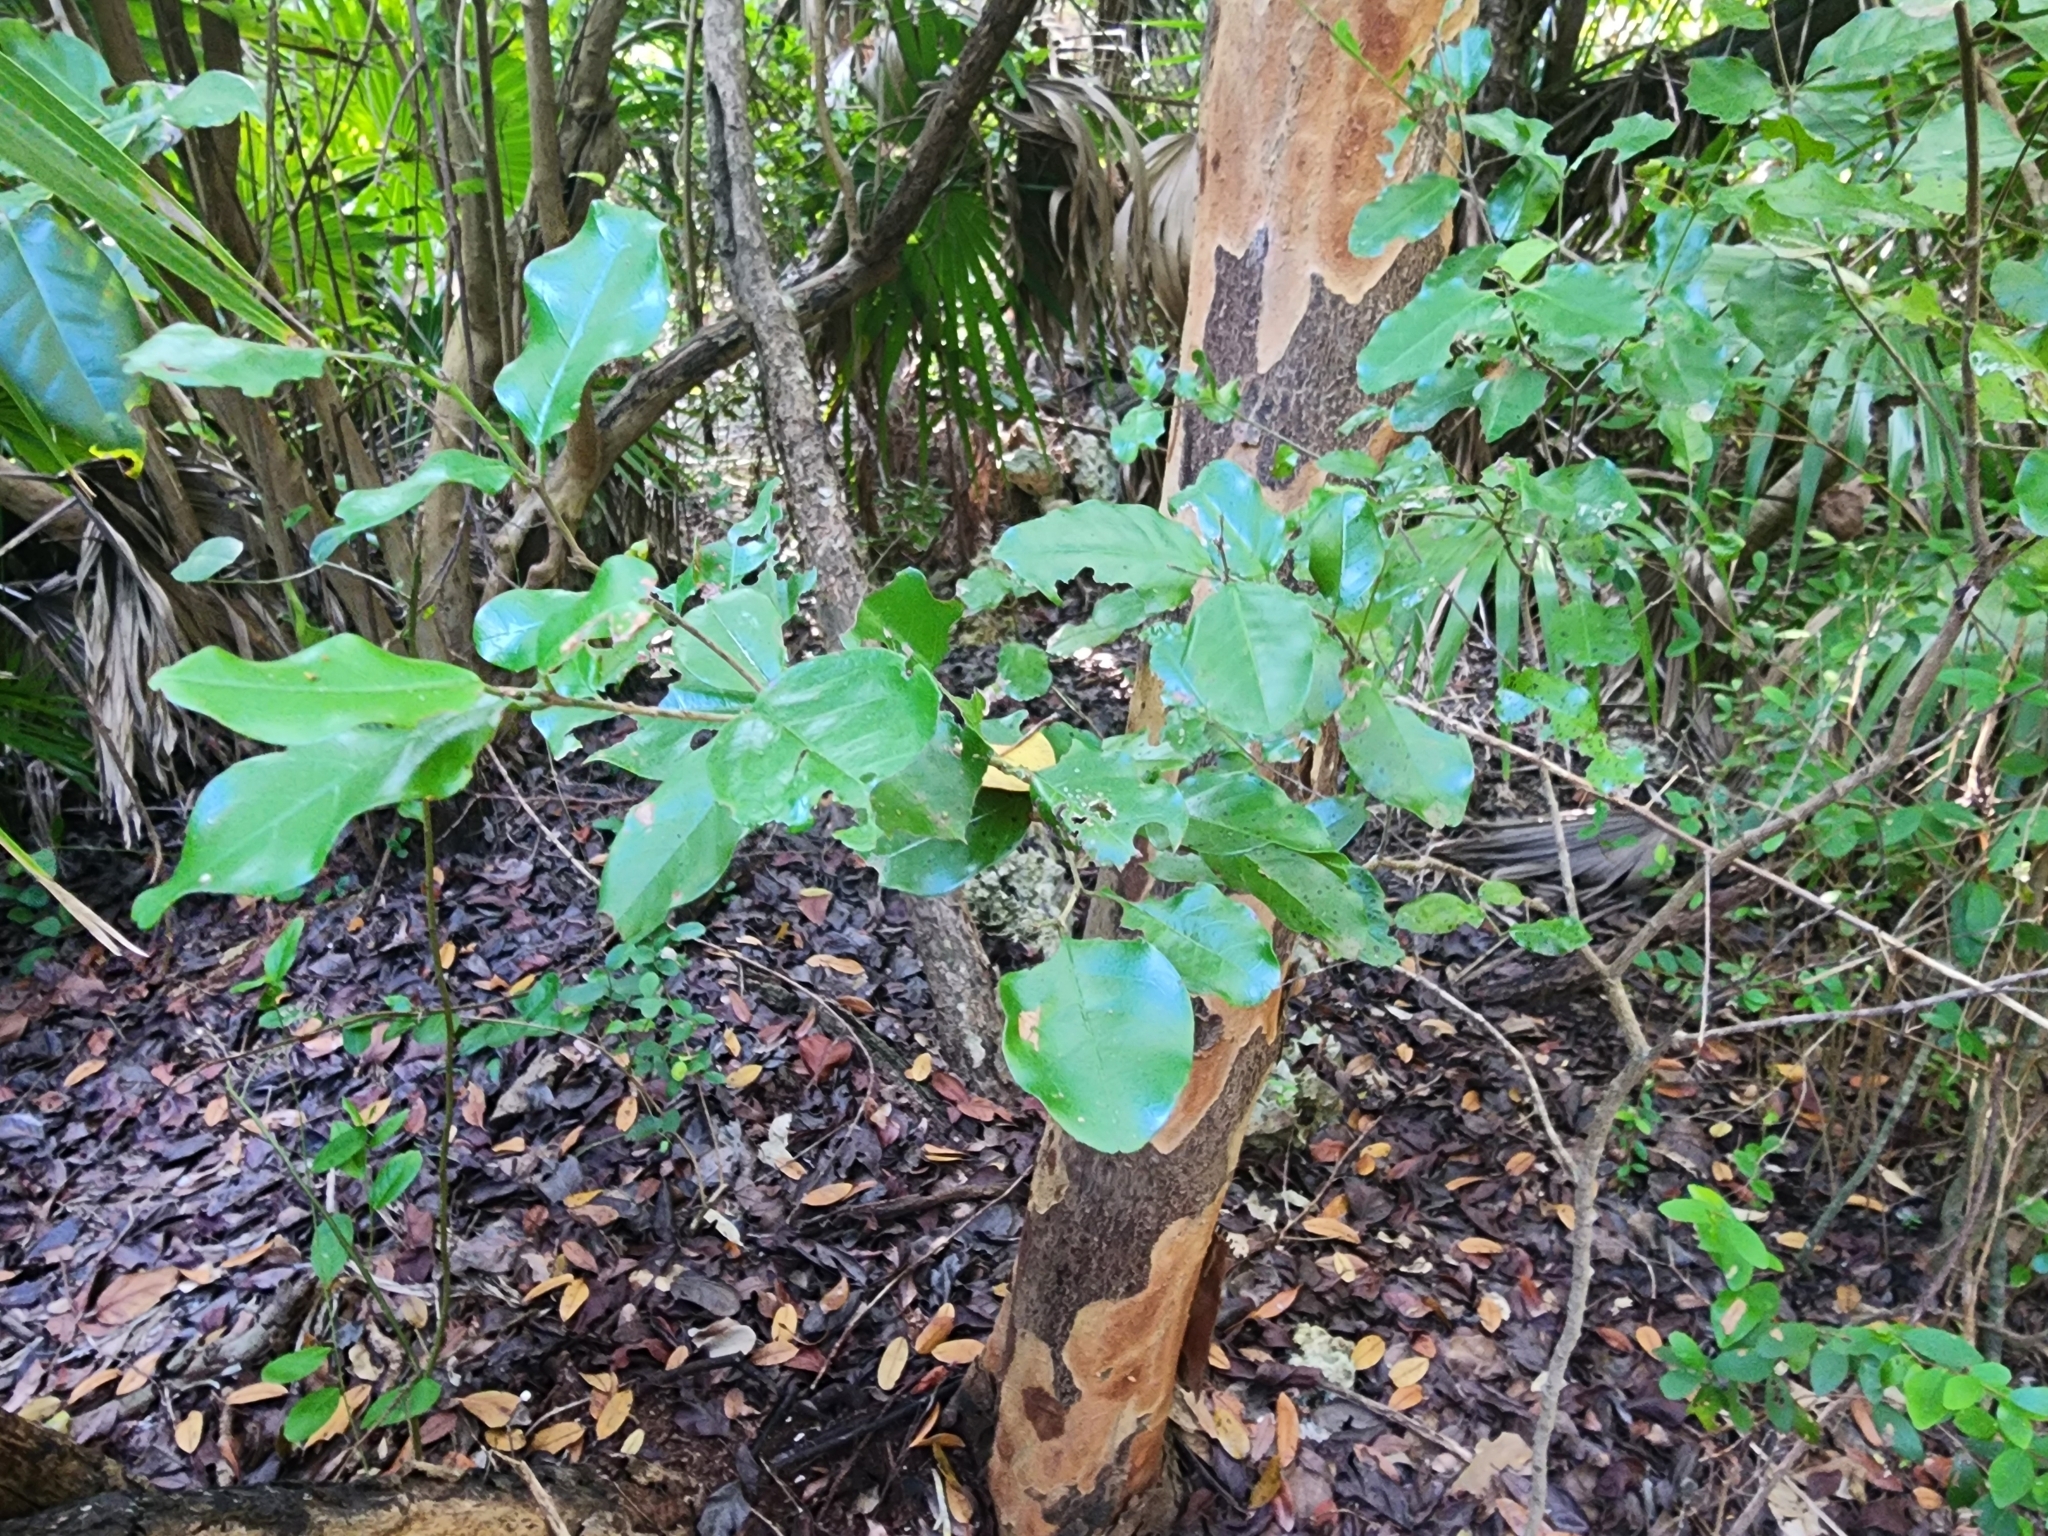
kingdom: Plantae
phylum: Tracheophyta
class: Magnoliopsida
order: Rosales
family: Rhamnaceae
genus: Krugiodendron
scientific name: Krugiodendron ferreum
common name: Iron wood
